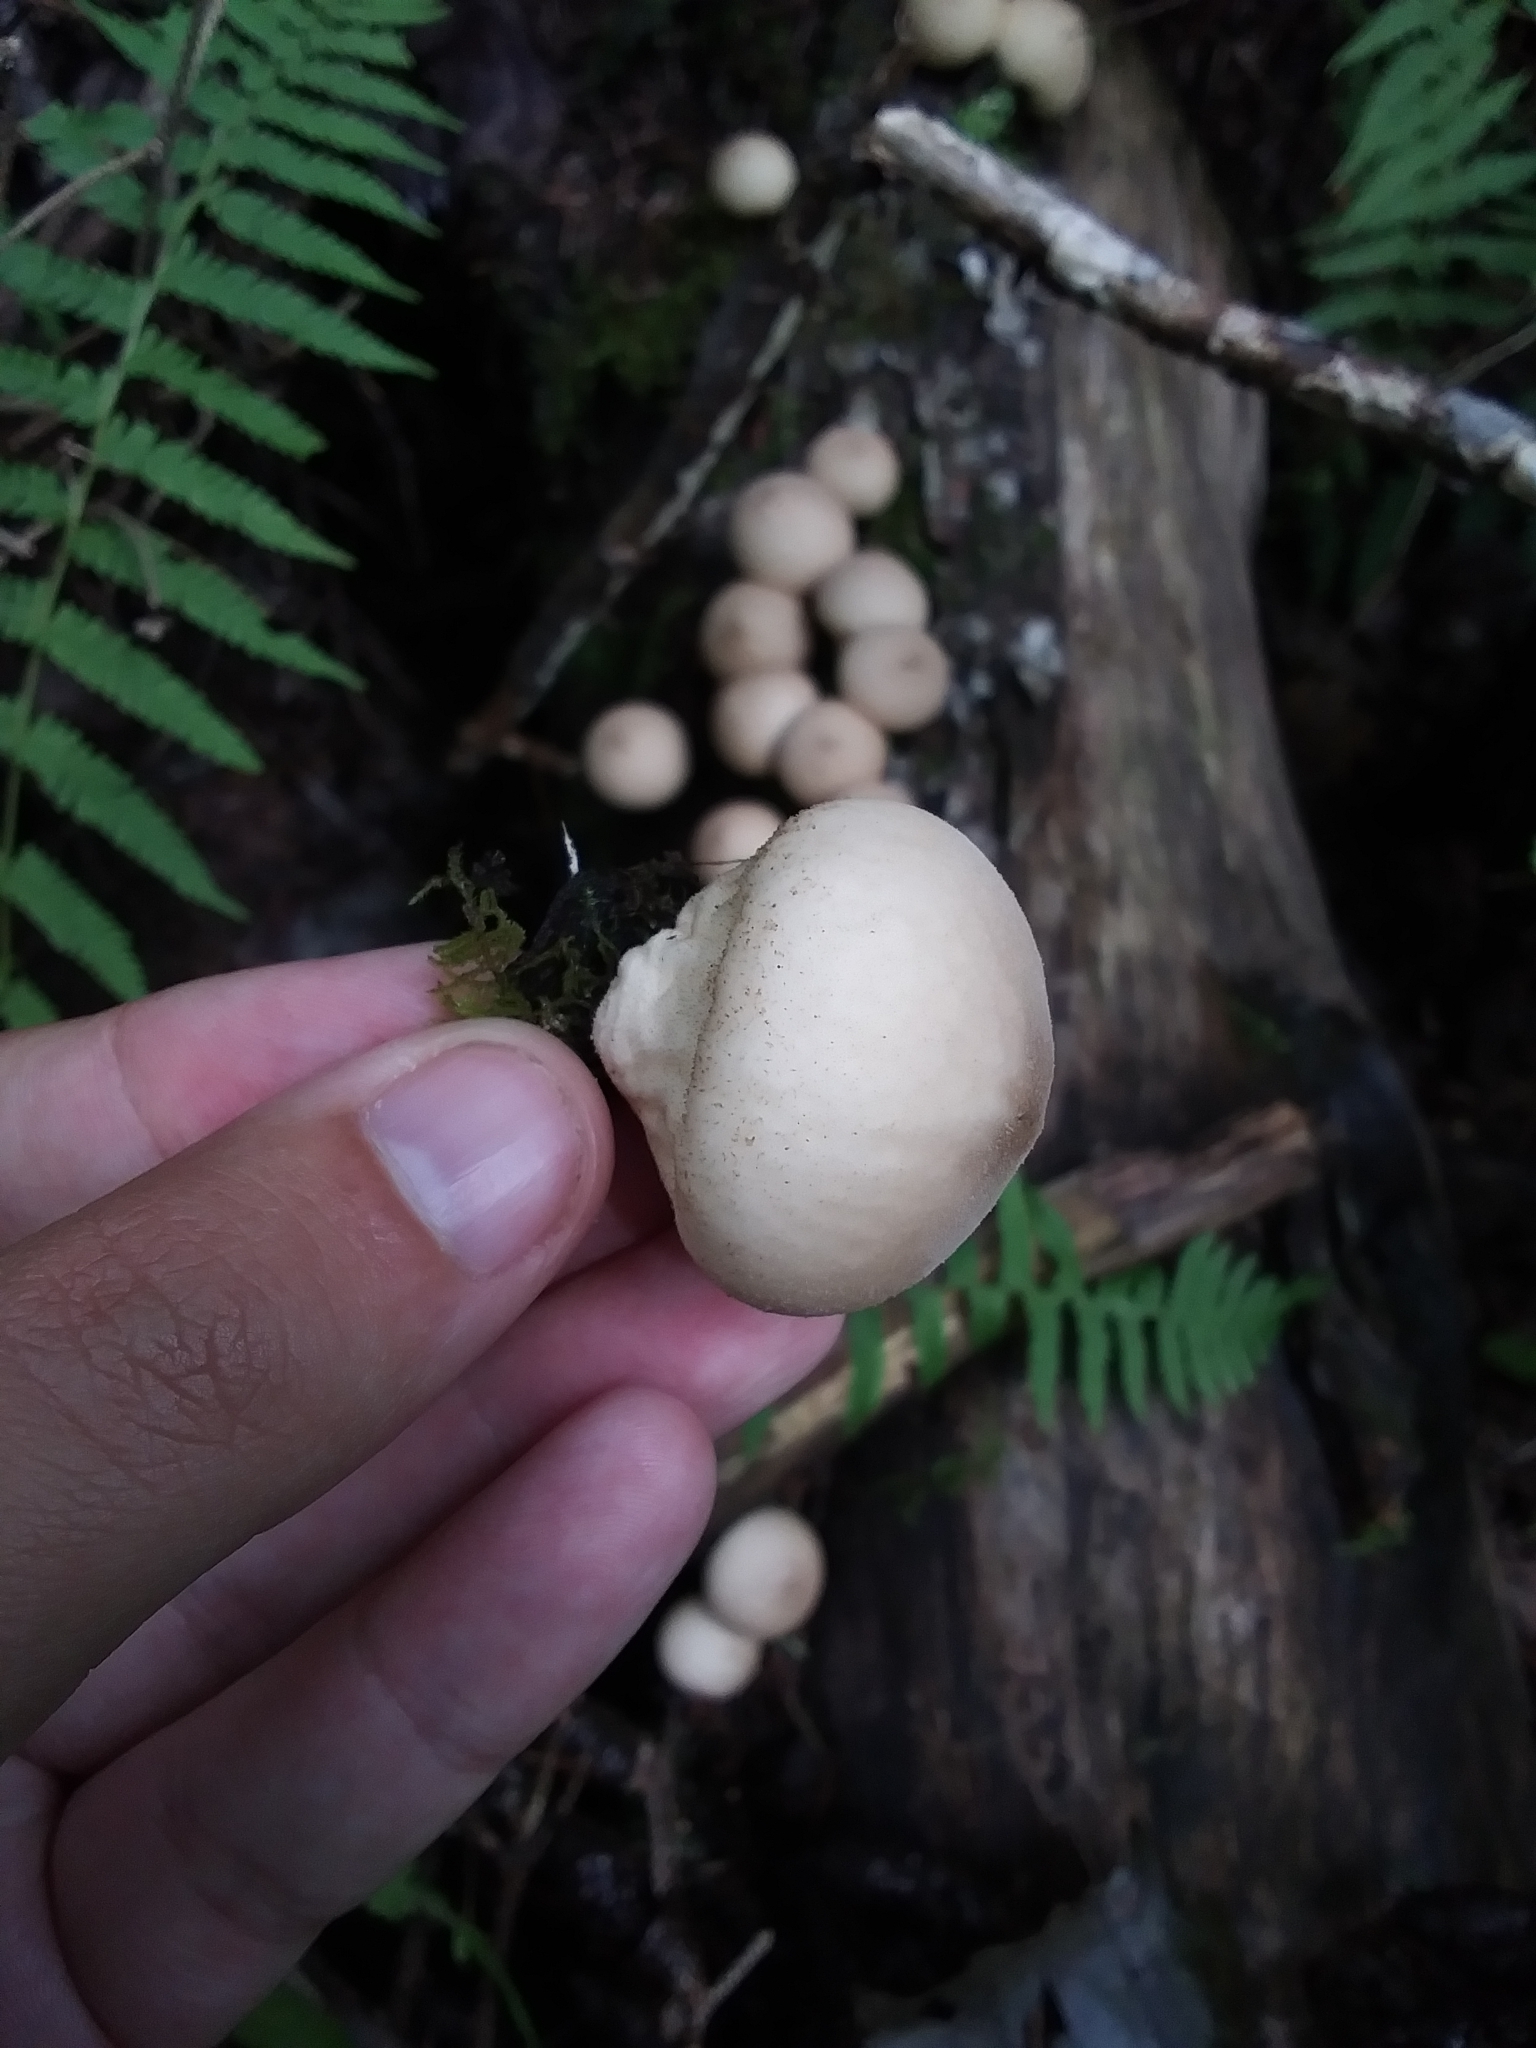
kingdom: Fungi
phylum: Basidiomycota
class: Agaricomycetes
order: Agaricales
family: Lycoperdaceae
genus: Apioperdon
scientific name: Apioperdon pyriforme
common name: Pear-shaped puffball
